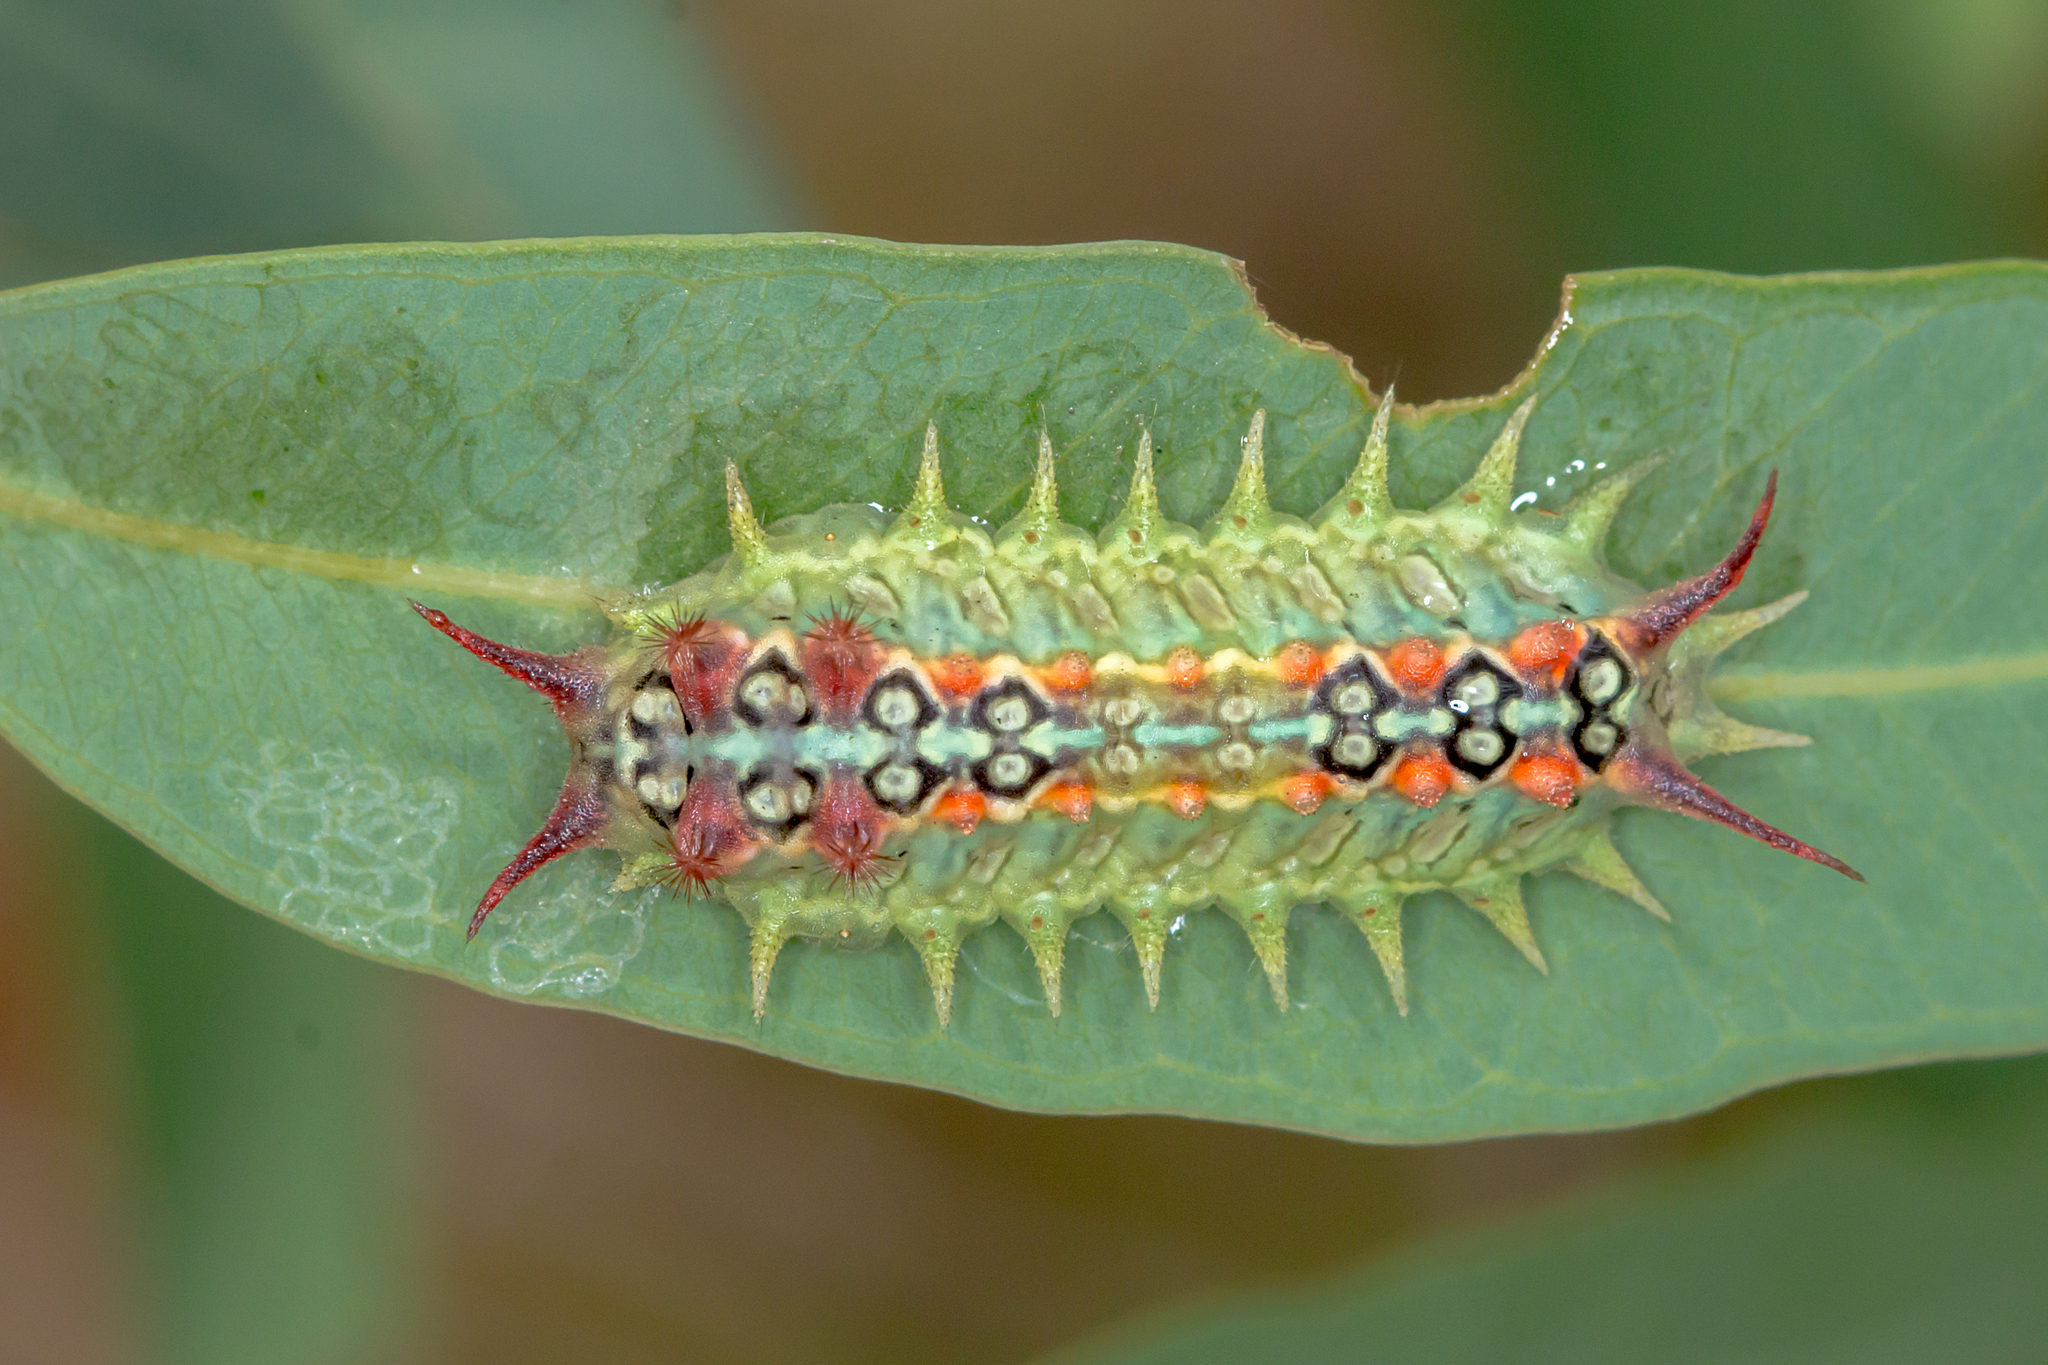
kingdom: Animalia
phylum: Arthropoda
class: Insecta
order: Lepidoptera
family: Limacodidae
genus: Doratifera
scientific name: Doratifera quadriguttata
